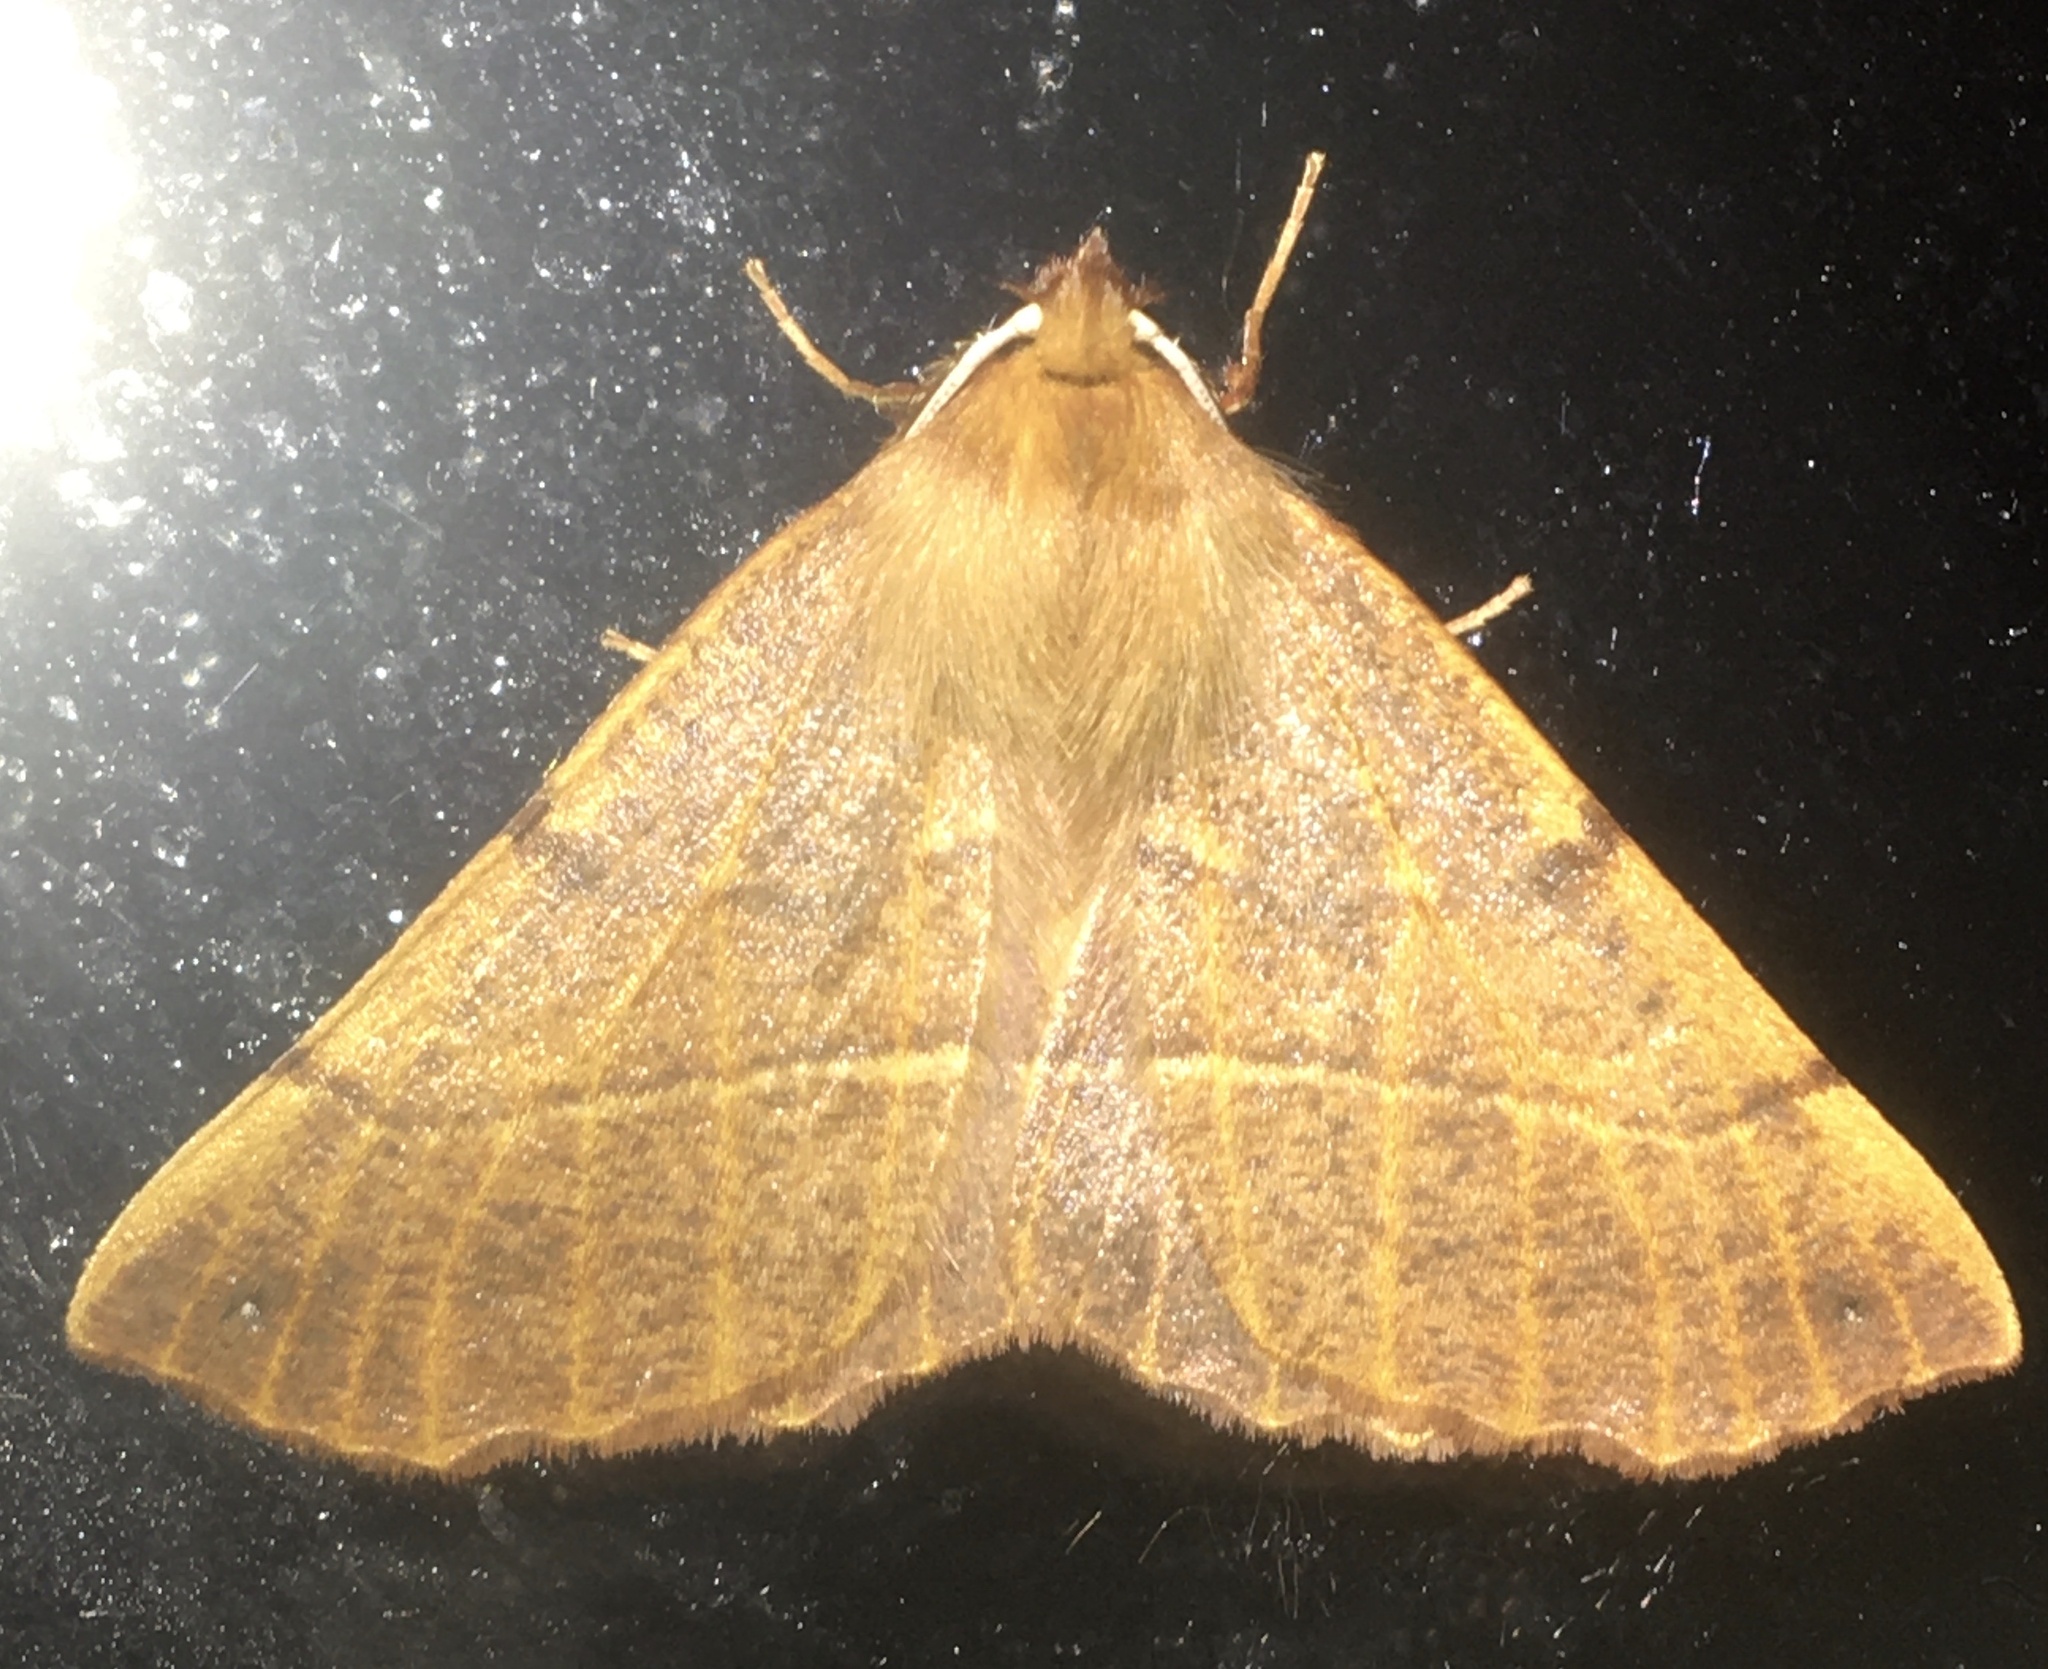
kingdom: Animalia
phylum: Arthropoda
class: Insecta
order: Lepidoptera
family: Geometridae
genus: Colotois
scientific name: Colotois pennaria
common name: Feathered thorn
